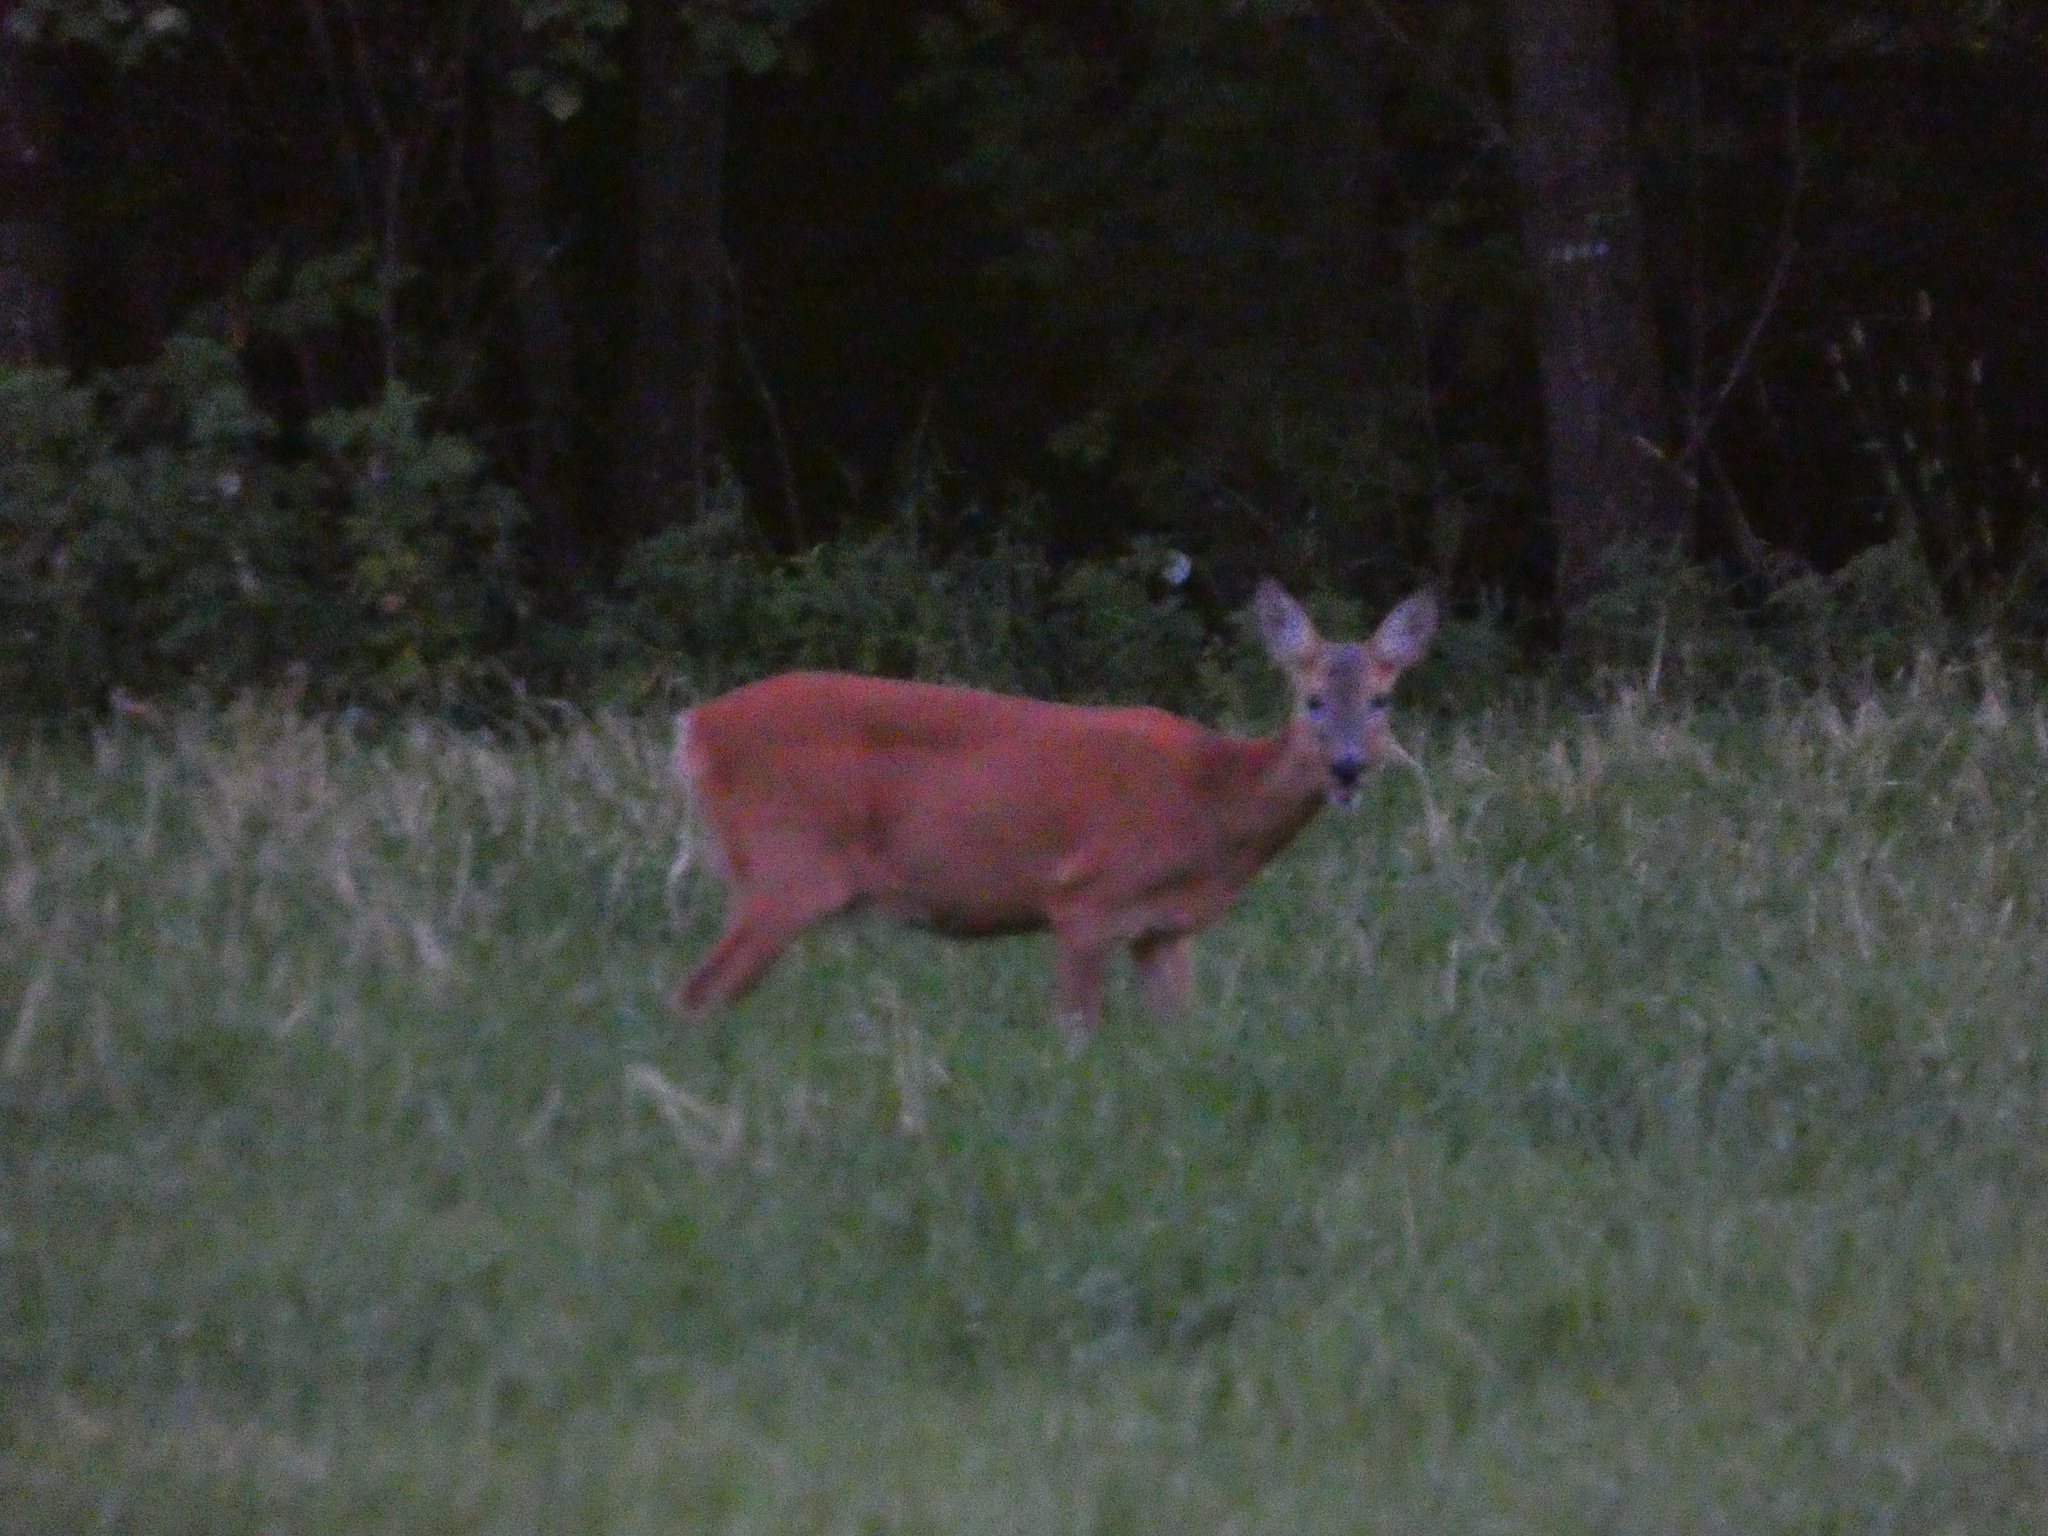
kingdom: Animalia
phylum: Chordata
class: Mammalia
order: Artiodactyla
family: Cervidae
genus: Capreolus
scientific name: Capreolus capreolus
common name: Western roe deer
